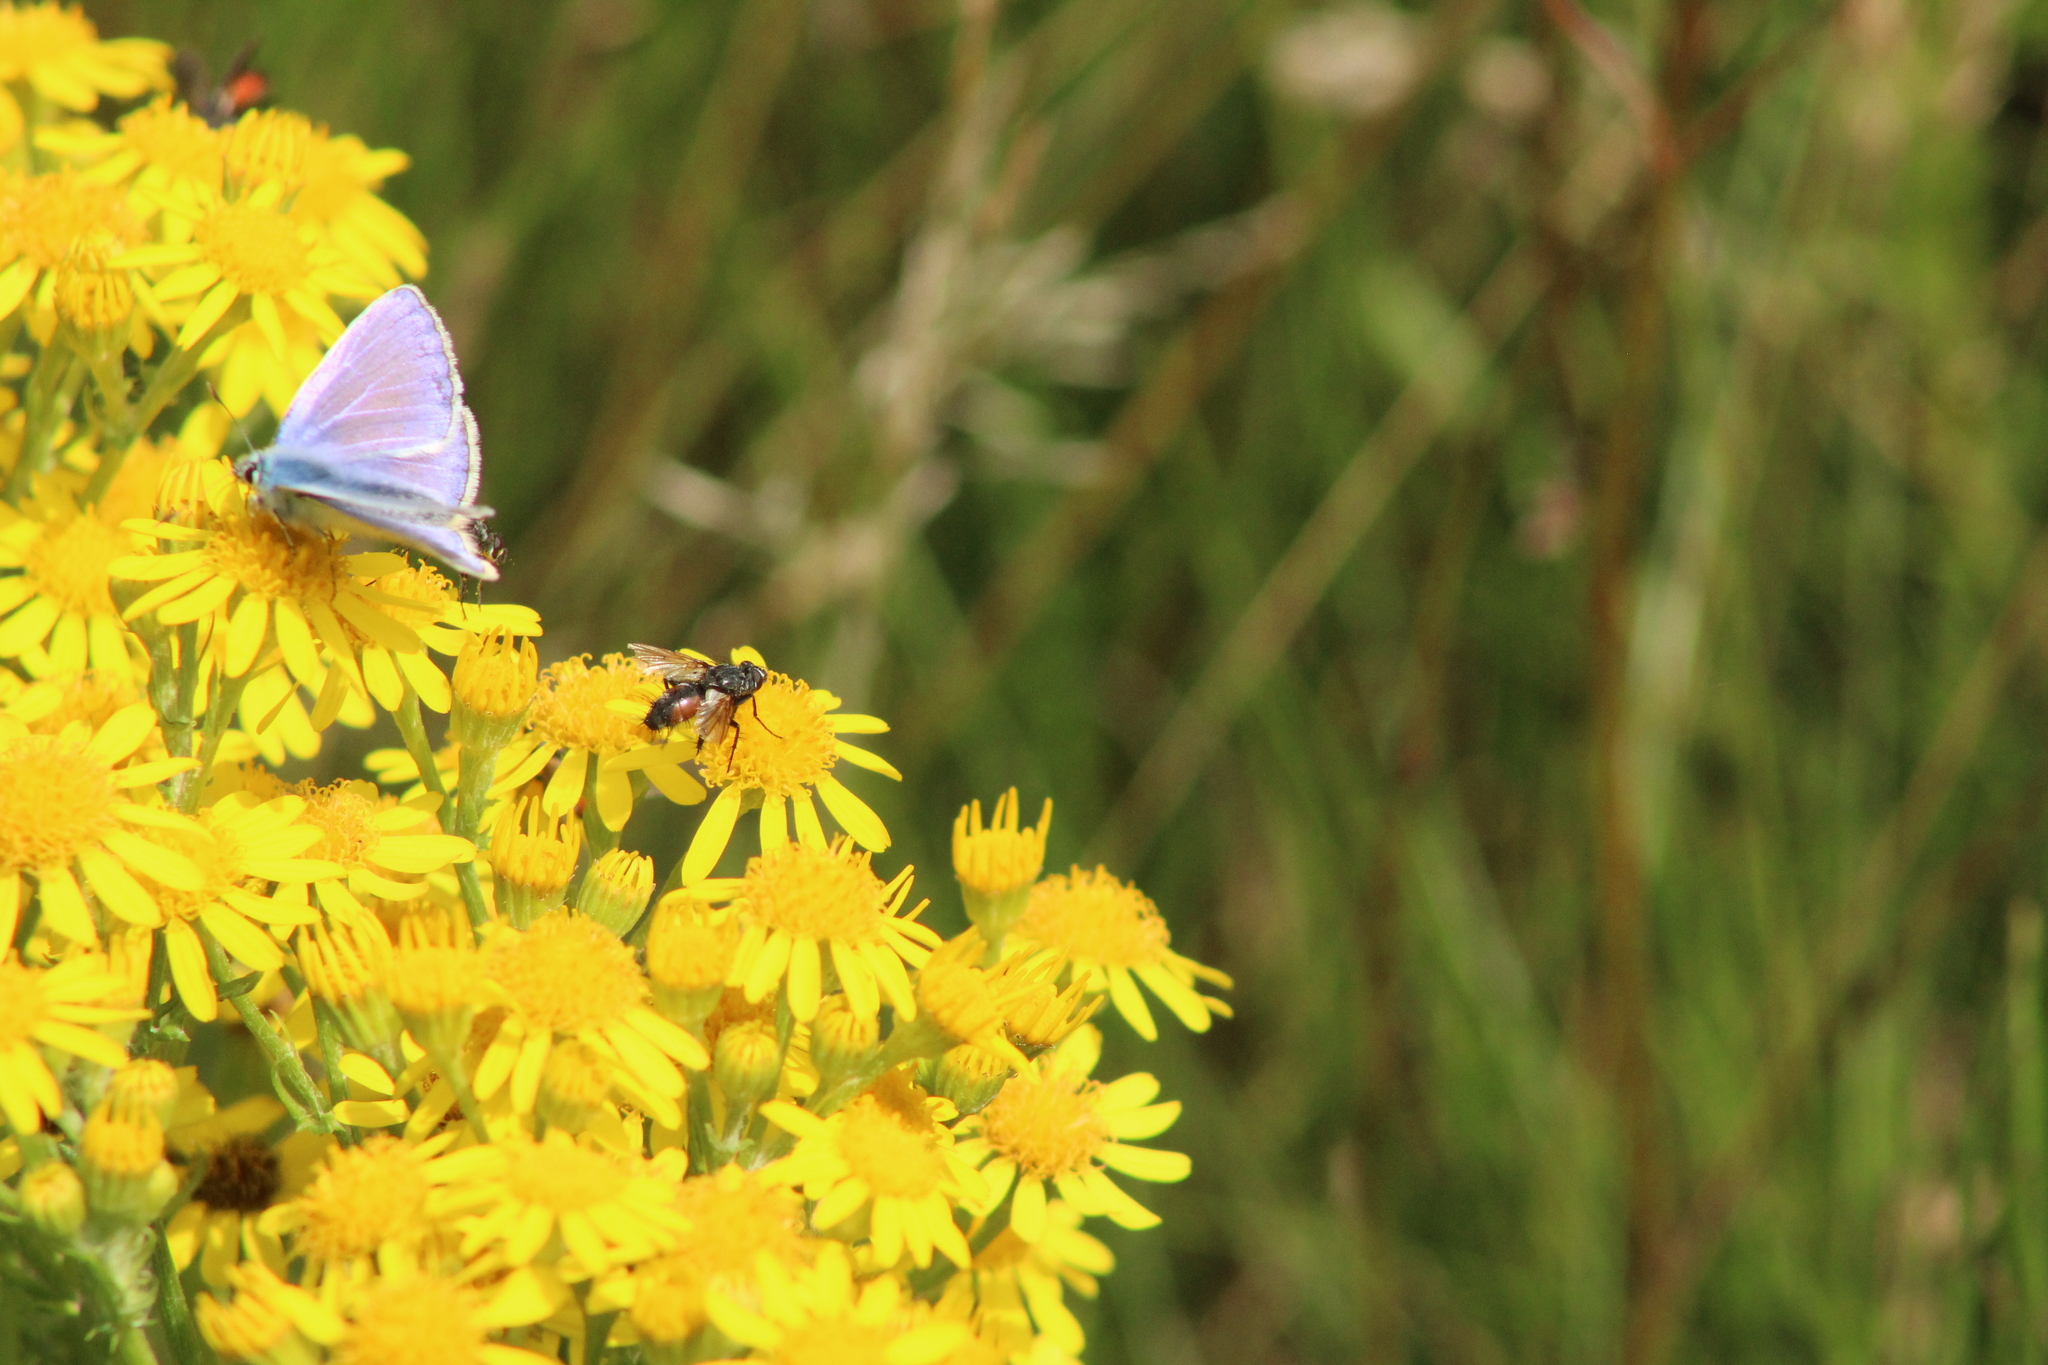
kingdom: Animalia
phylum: Arthropoda
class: Insecta
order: Diptera
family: Tachinidae
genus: Eriothrix
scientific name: Eriothrix rufomaculatus
